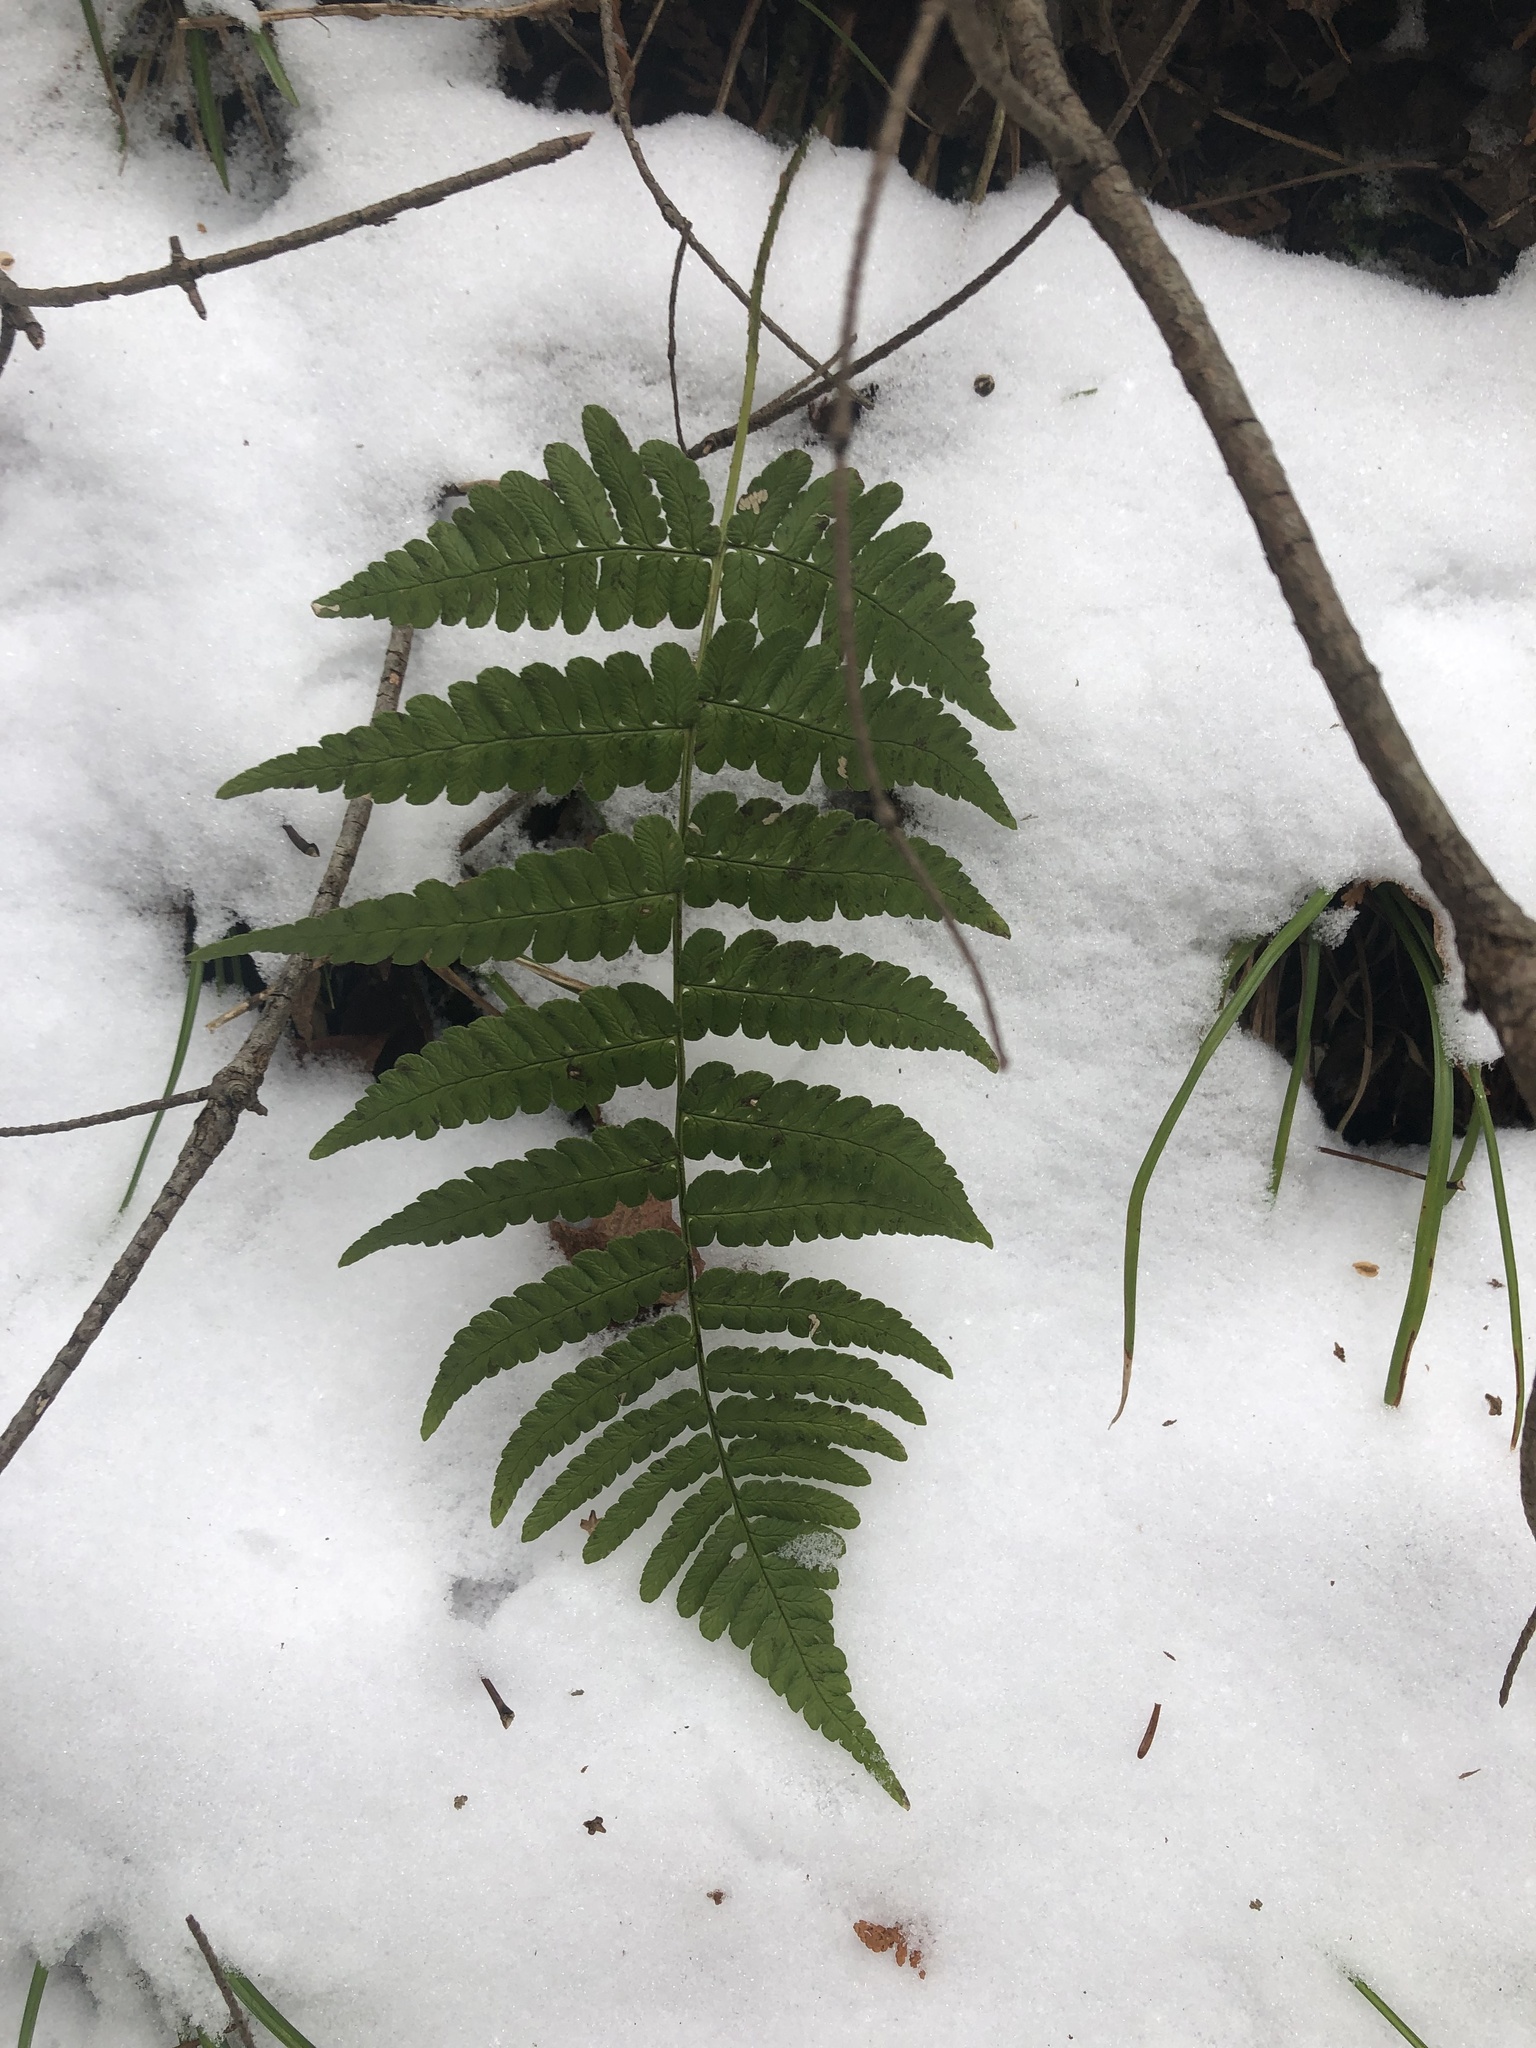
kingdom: Plantae
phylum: Tracheophyta
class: Polypodiopsida
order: Polypodiales
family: Dryopteridaceae
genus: Dryopteris
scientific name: Dryopteris marginalis
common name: Marginal wood fern
